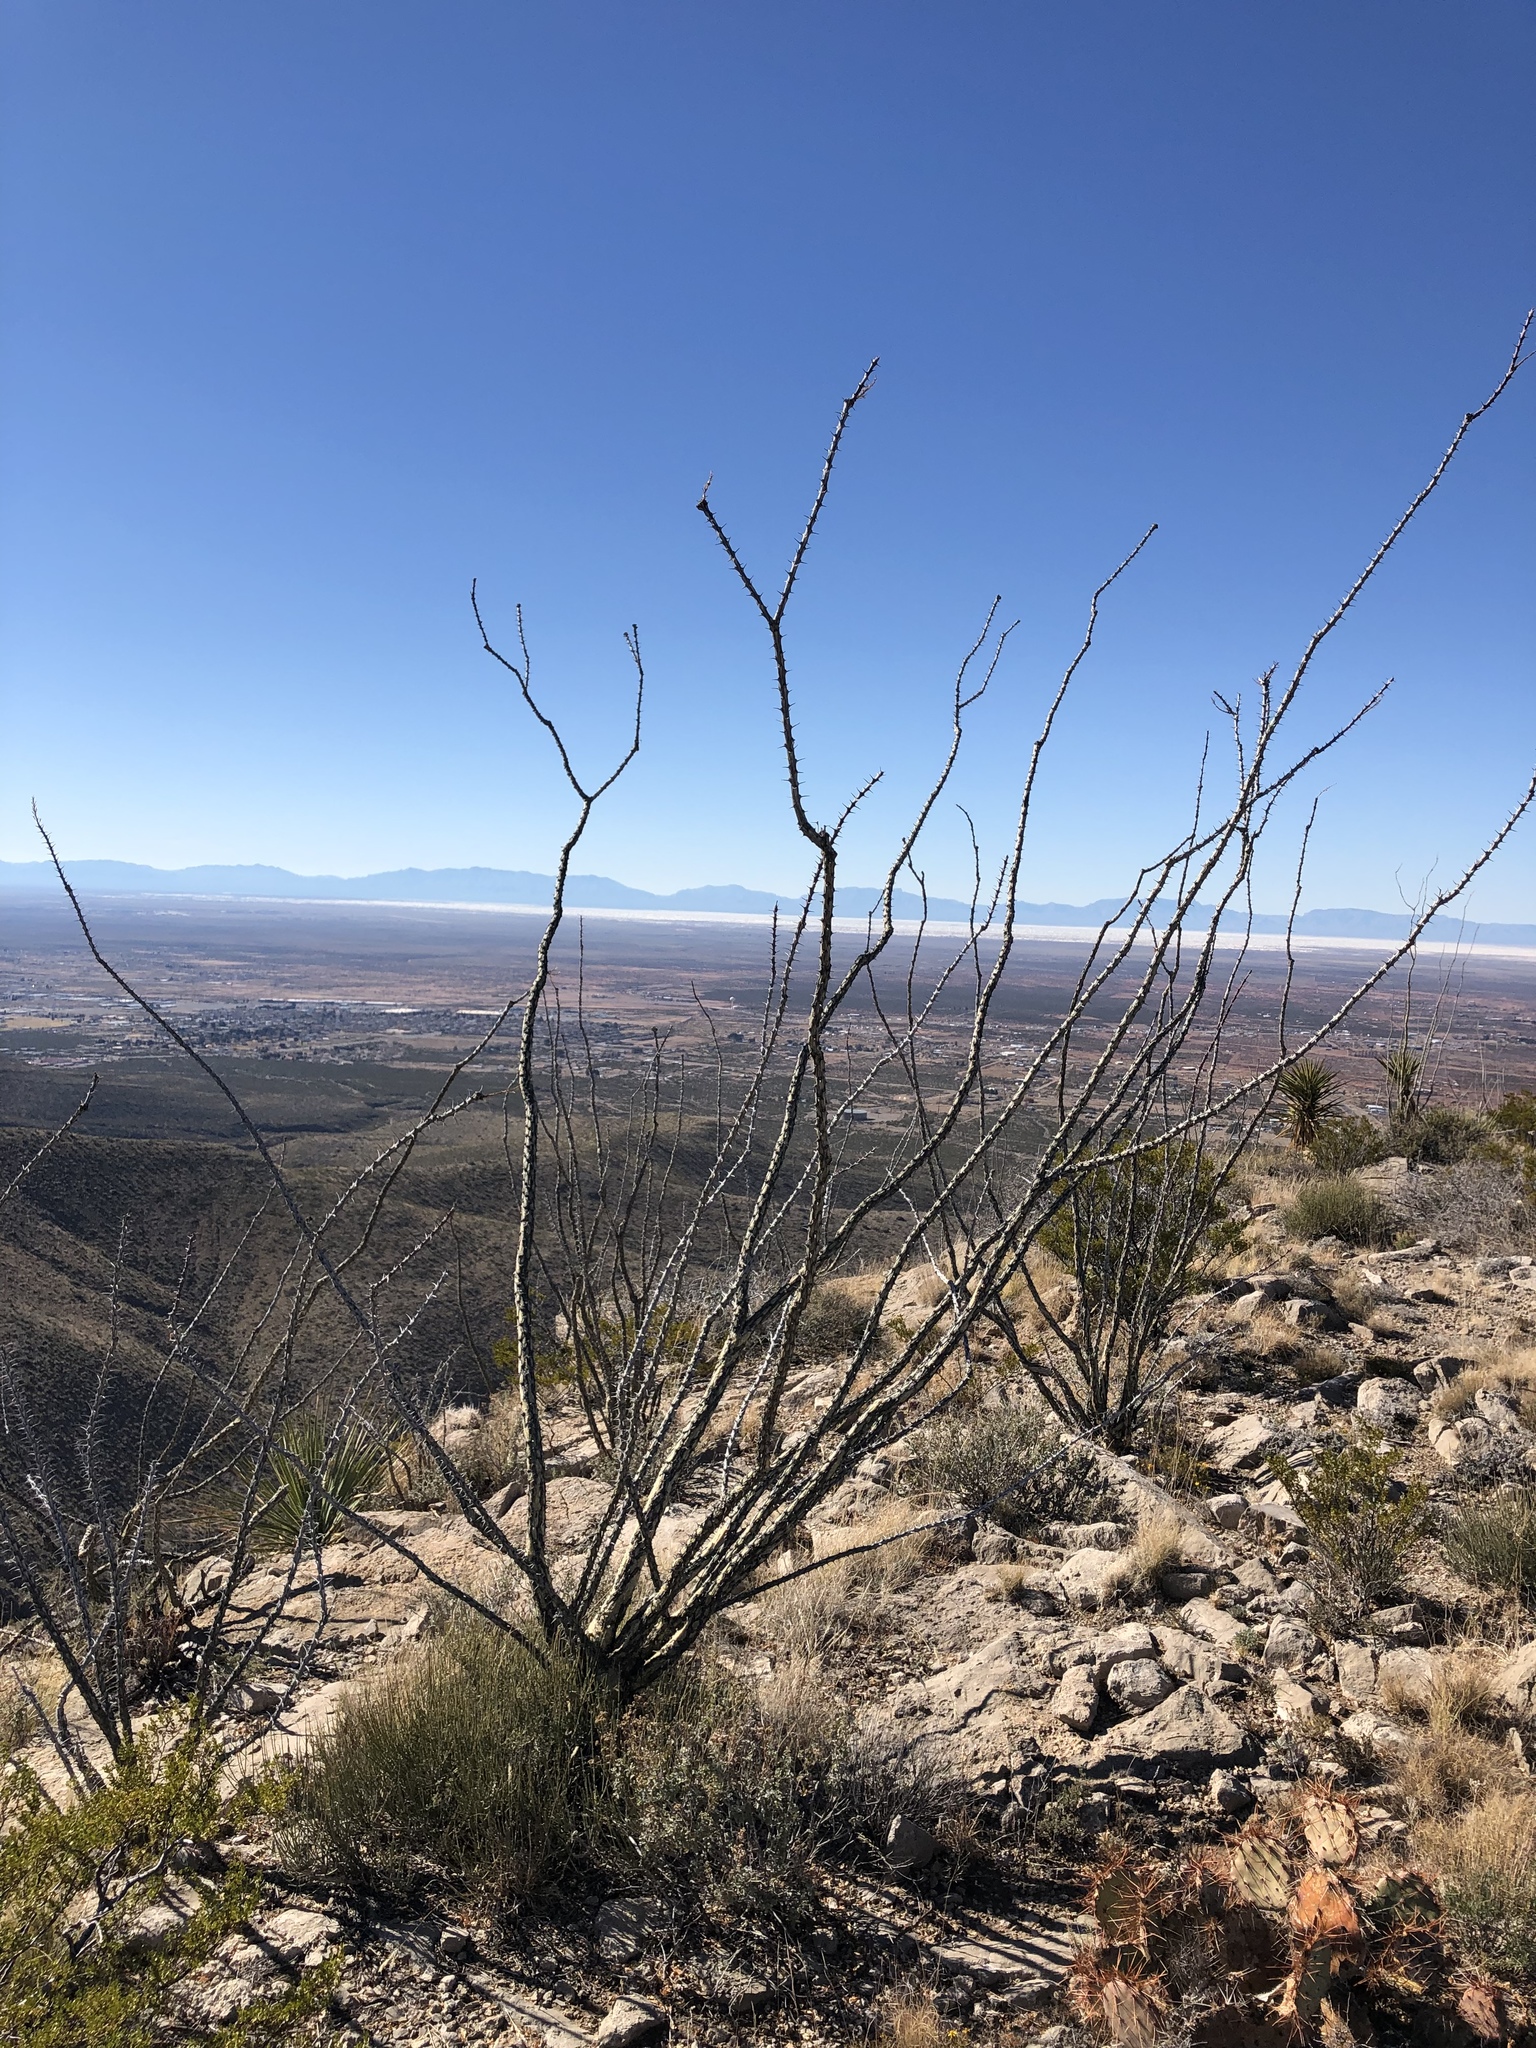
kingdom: Plantae
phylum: Tracheophyta
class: Magnoliopsida
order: Ericales
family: Fouquieriaceae
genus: Fouquieria
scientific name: Fouquieria splendens
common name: Vine-cactus
